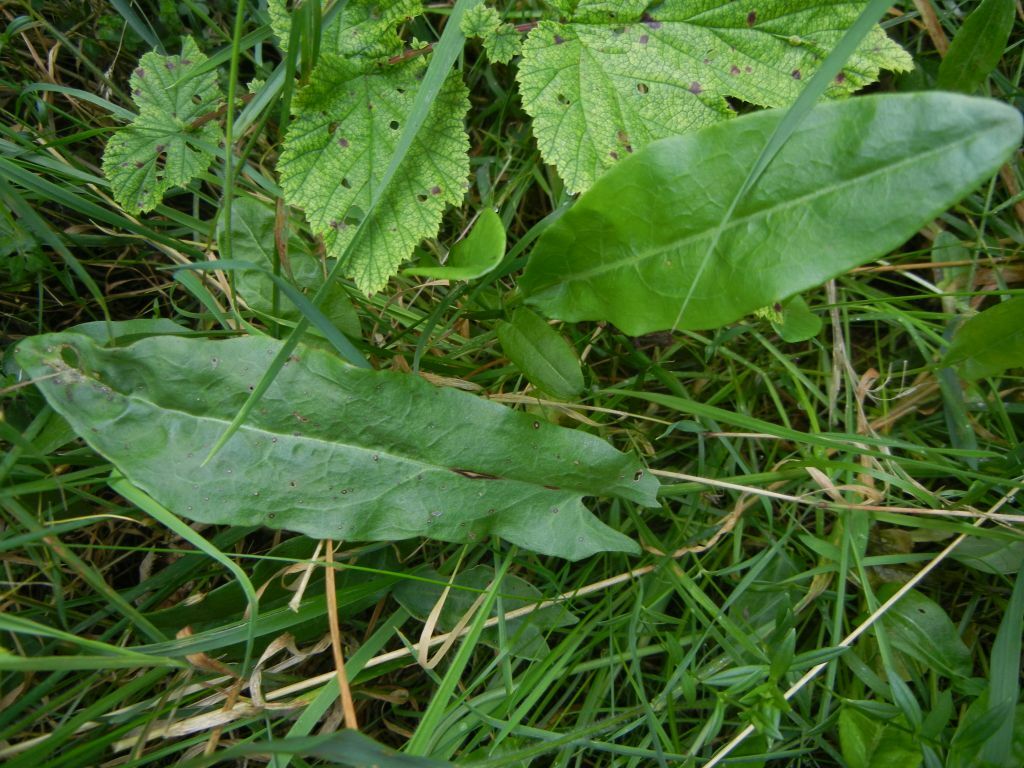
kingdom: Plantae
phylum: Tracheophyta
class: Magnoliopsida
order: Caryophyllales
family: Polygonaceae
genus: Rumex
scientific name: Rumex acetosa
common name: Garden sorrel
